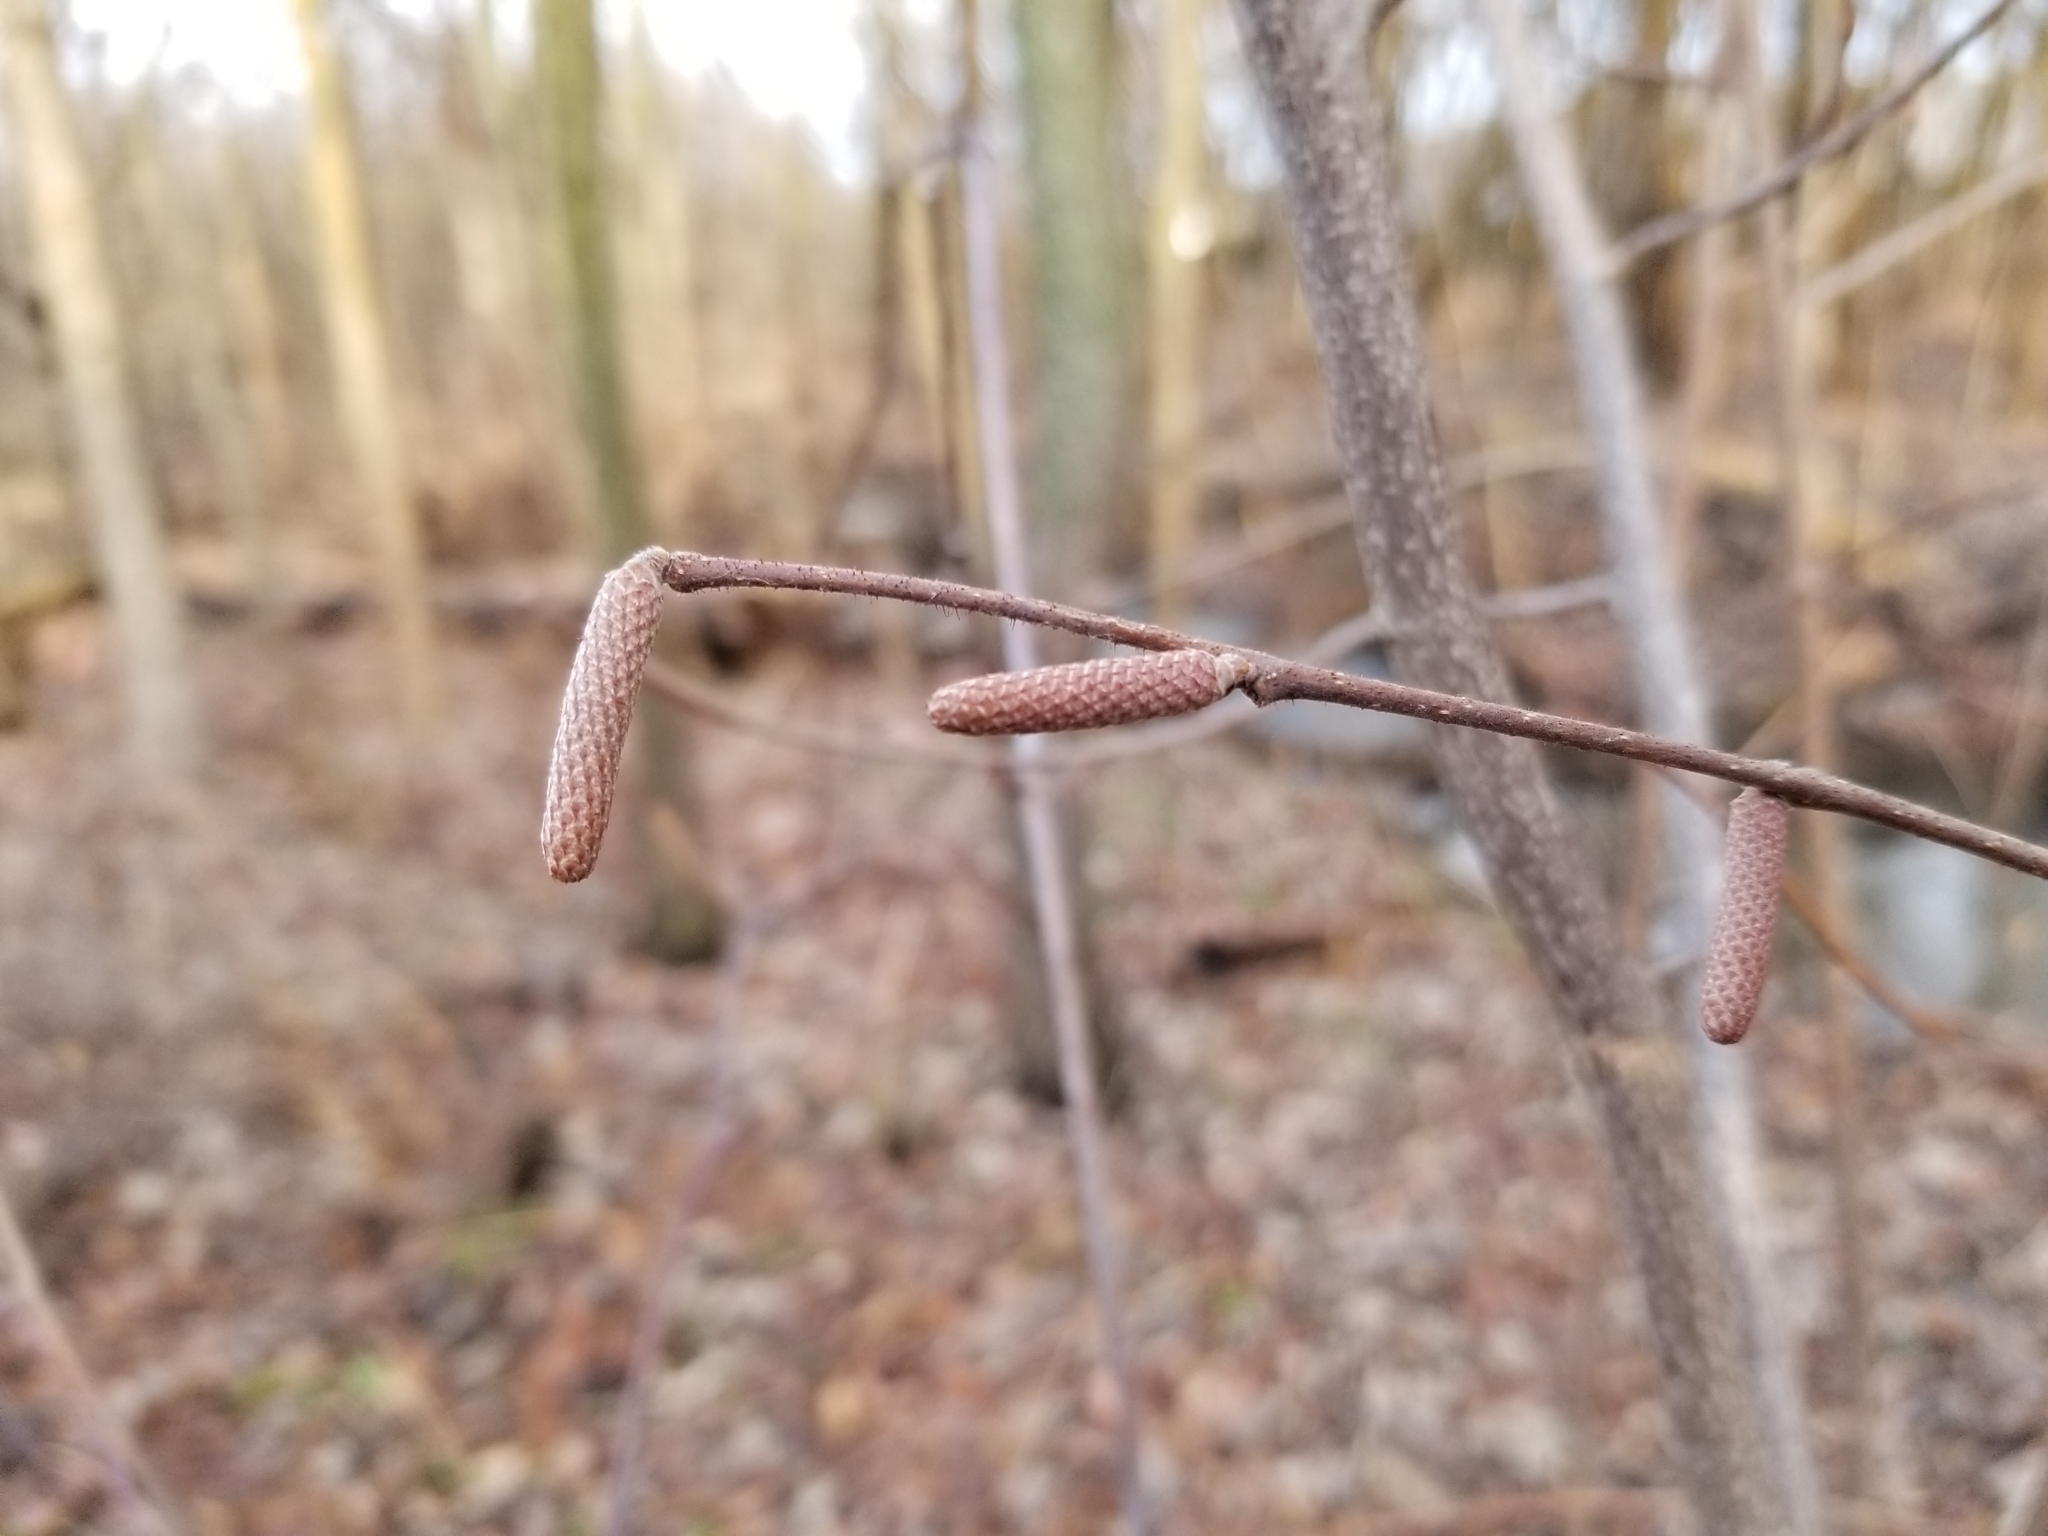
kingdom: Plantae
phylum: Tracheophyta
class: Magnoliopsida
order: Fagales
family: Betulaceae
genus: Corylus
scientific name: Corylus americana
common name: American hazel
